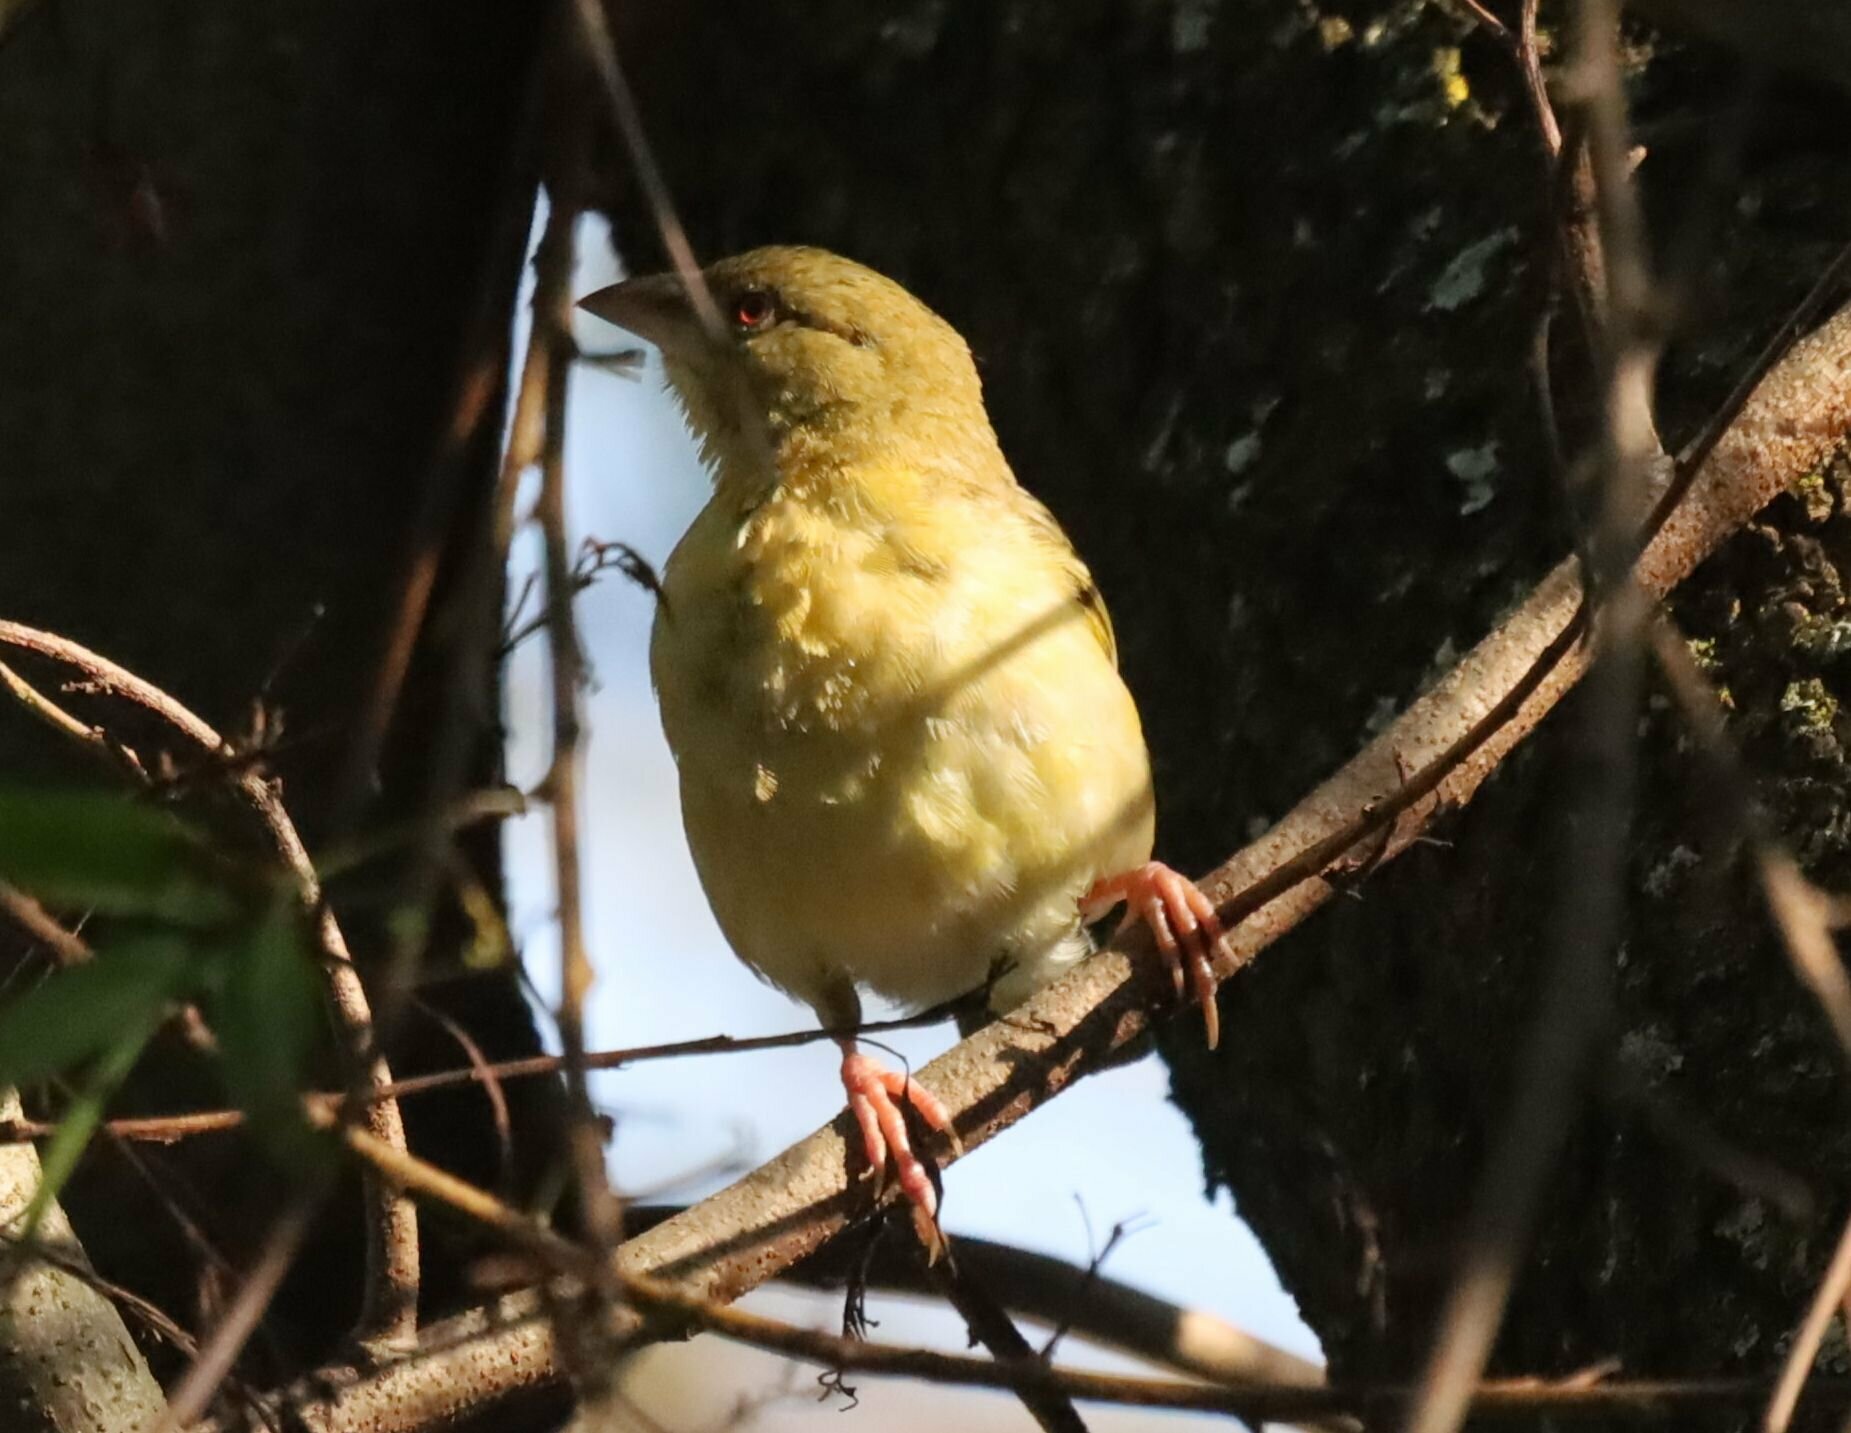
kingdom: Animalia
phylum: Chordata
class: Aves
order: Passeriformes
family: Ploceidae
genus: Ploceus
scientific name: Ploceus velatus
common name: Southern masked weaver
